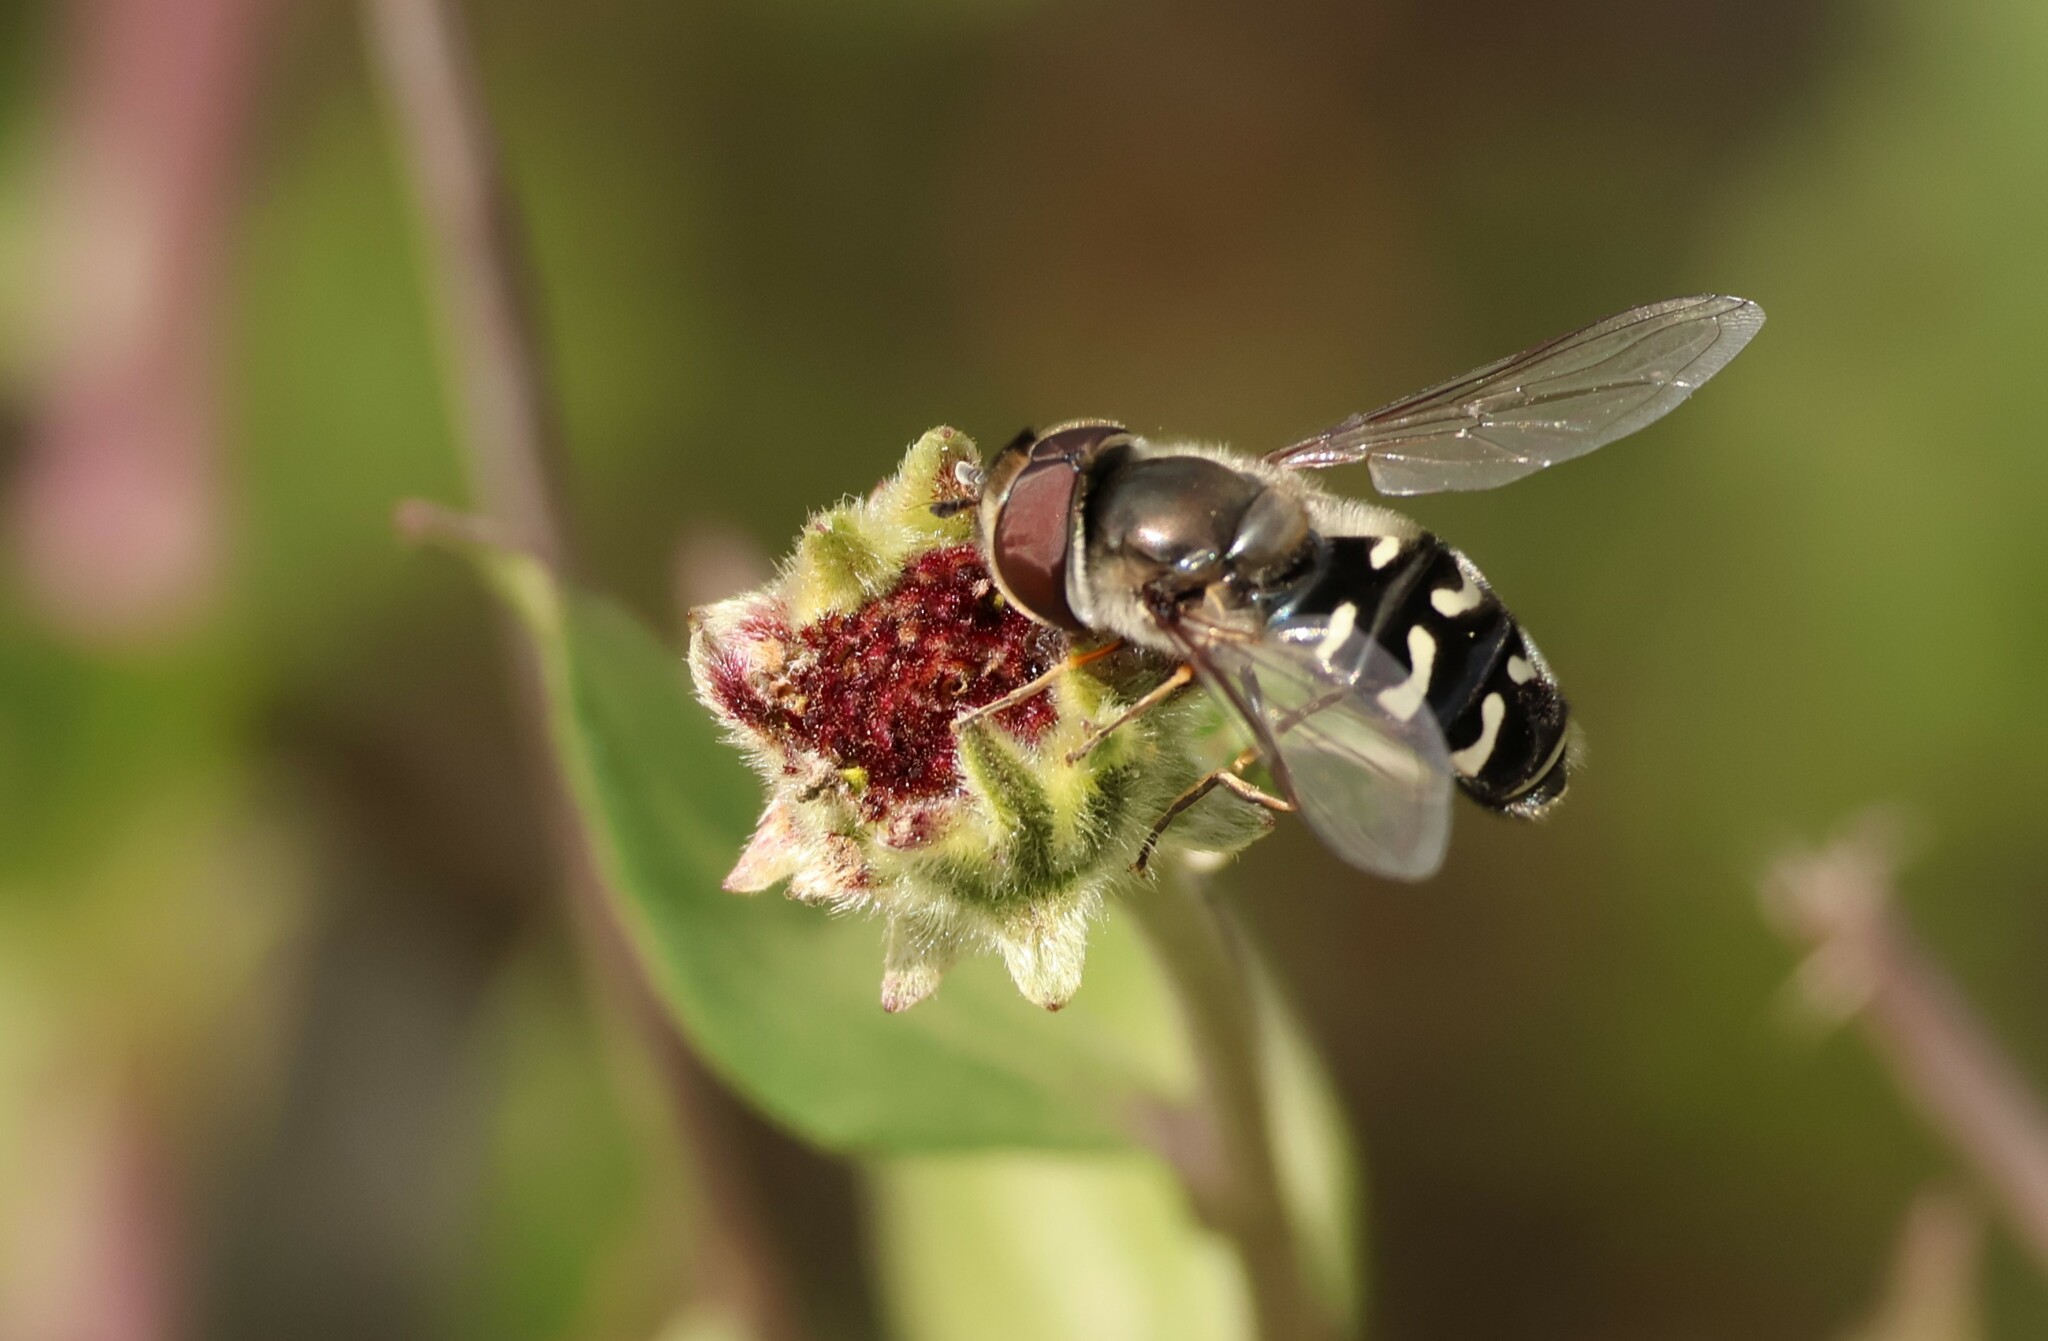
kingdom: Animalia
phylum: Arthropoda
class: Insecta
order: Diptera
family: Syrphidae
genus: Scaeva
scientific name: Scaeva affinis
